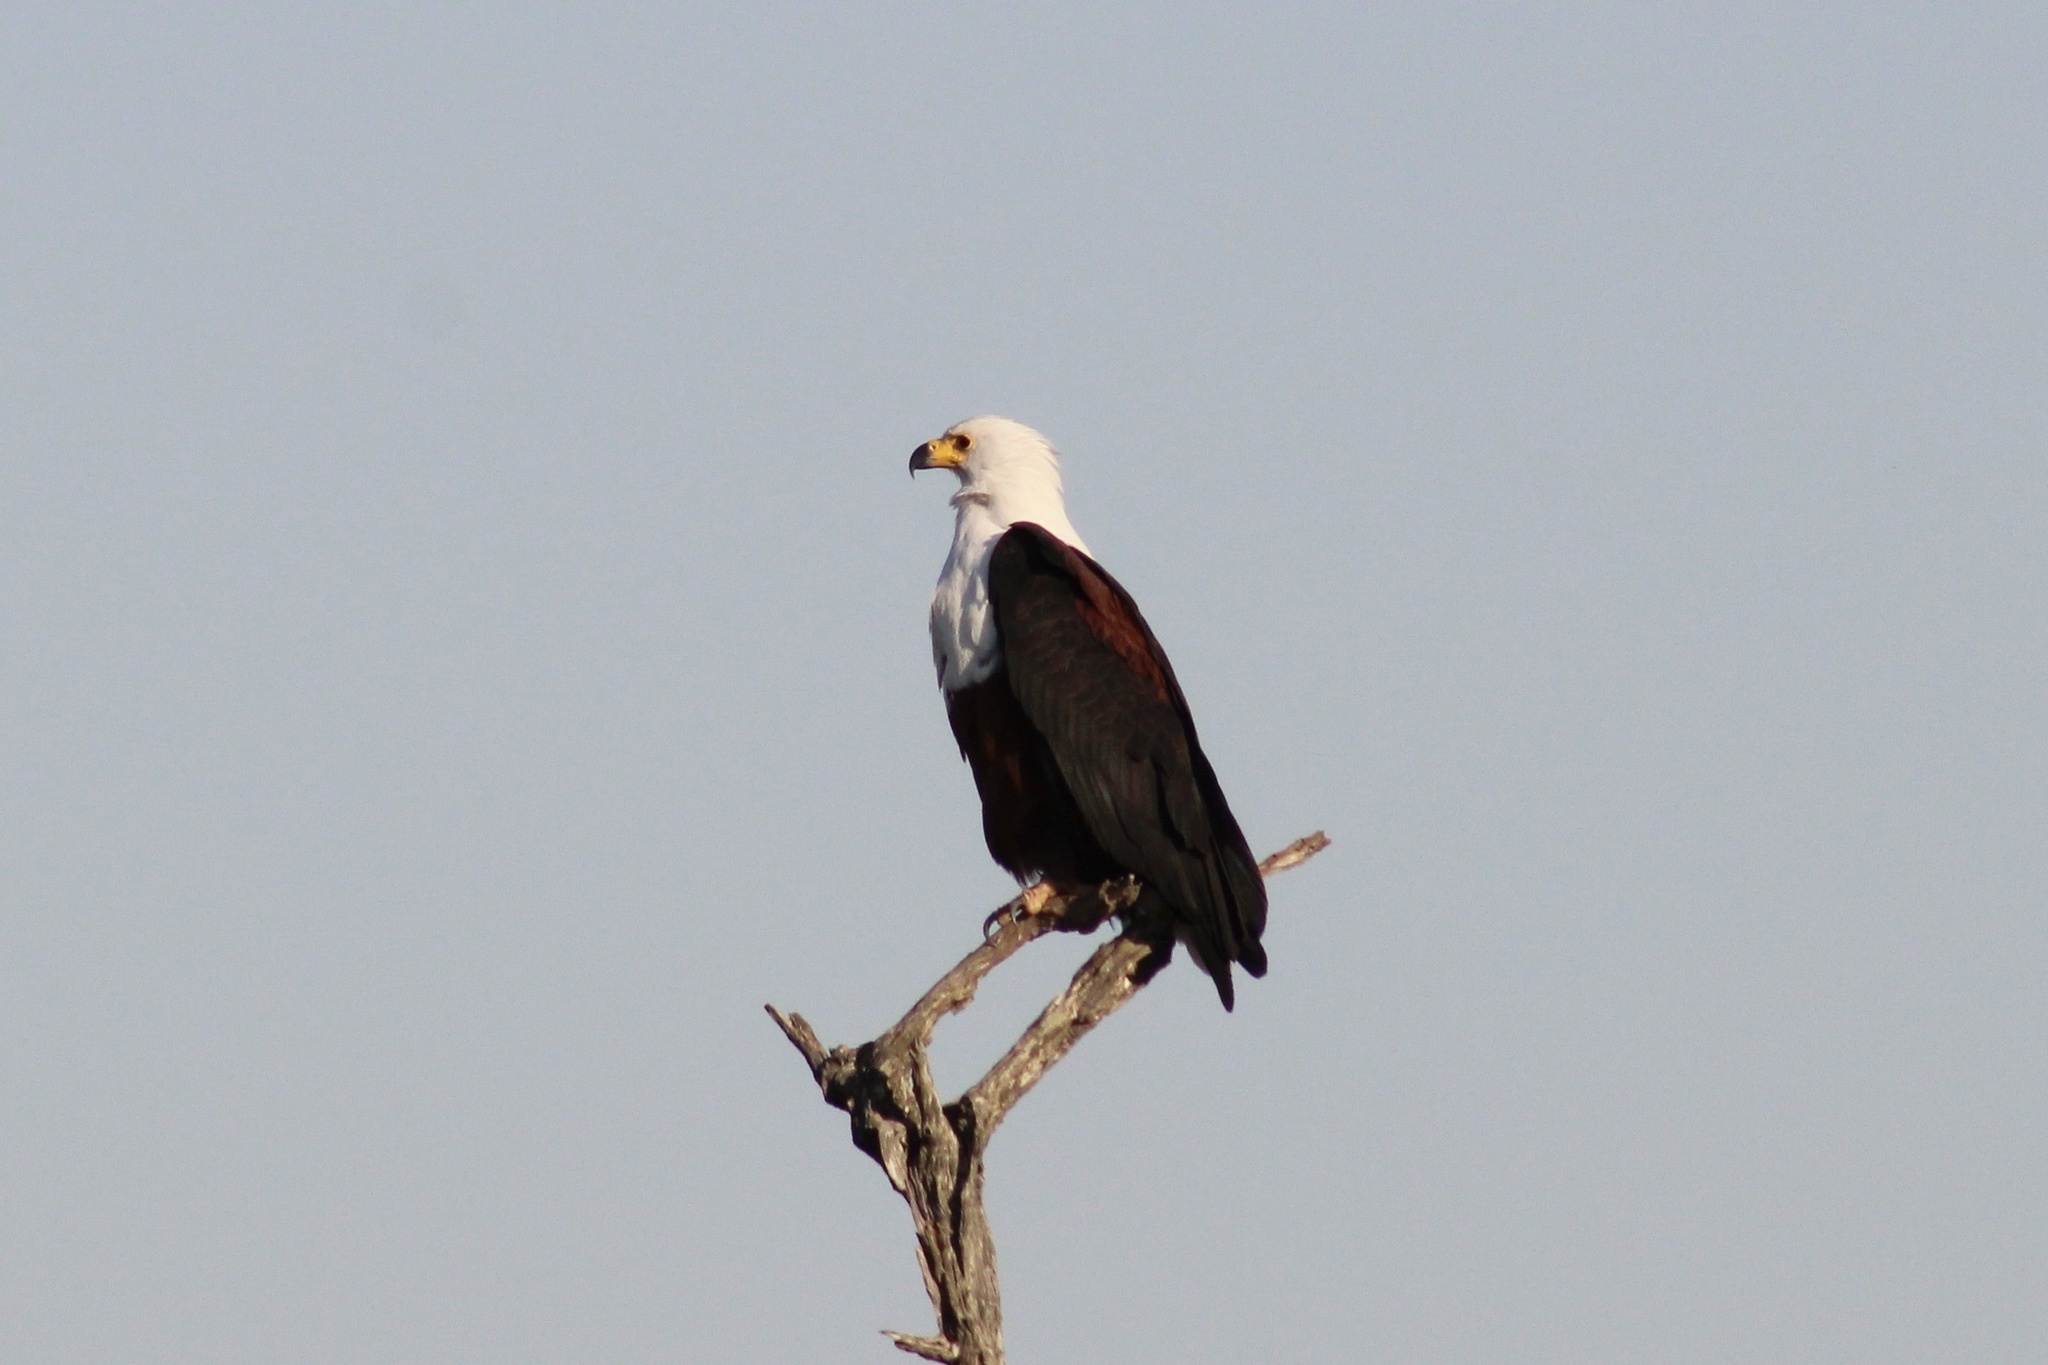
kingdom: Animalia
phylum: Chordata
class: Aves
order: Accipitriformes
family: Accipitridae
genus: Haliaeetus
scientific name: Haliaeetus vocifer
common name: African fish eagle
